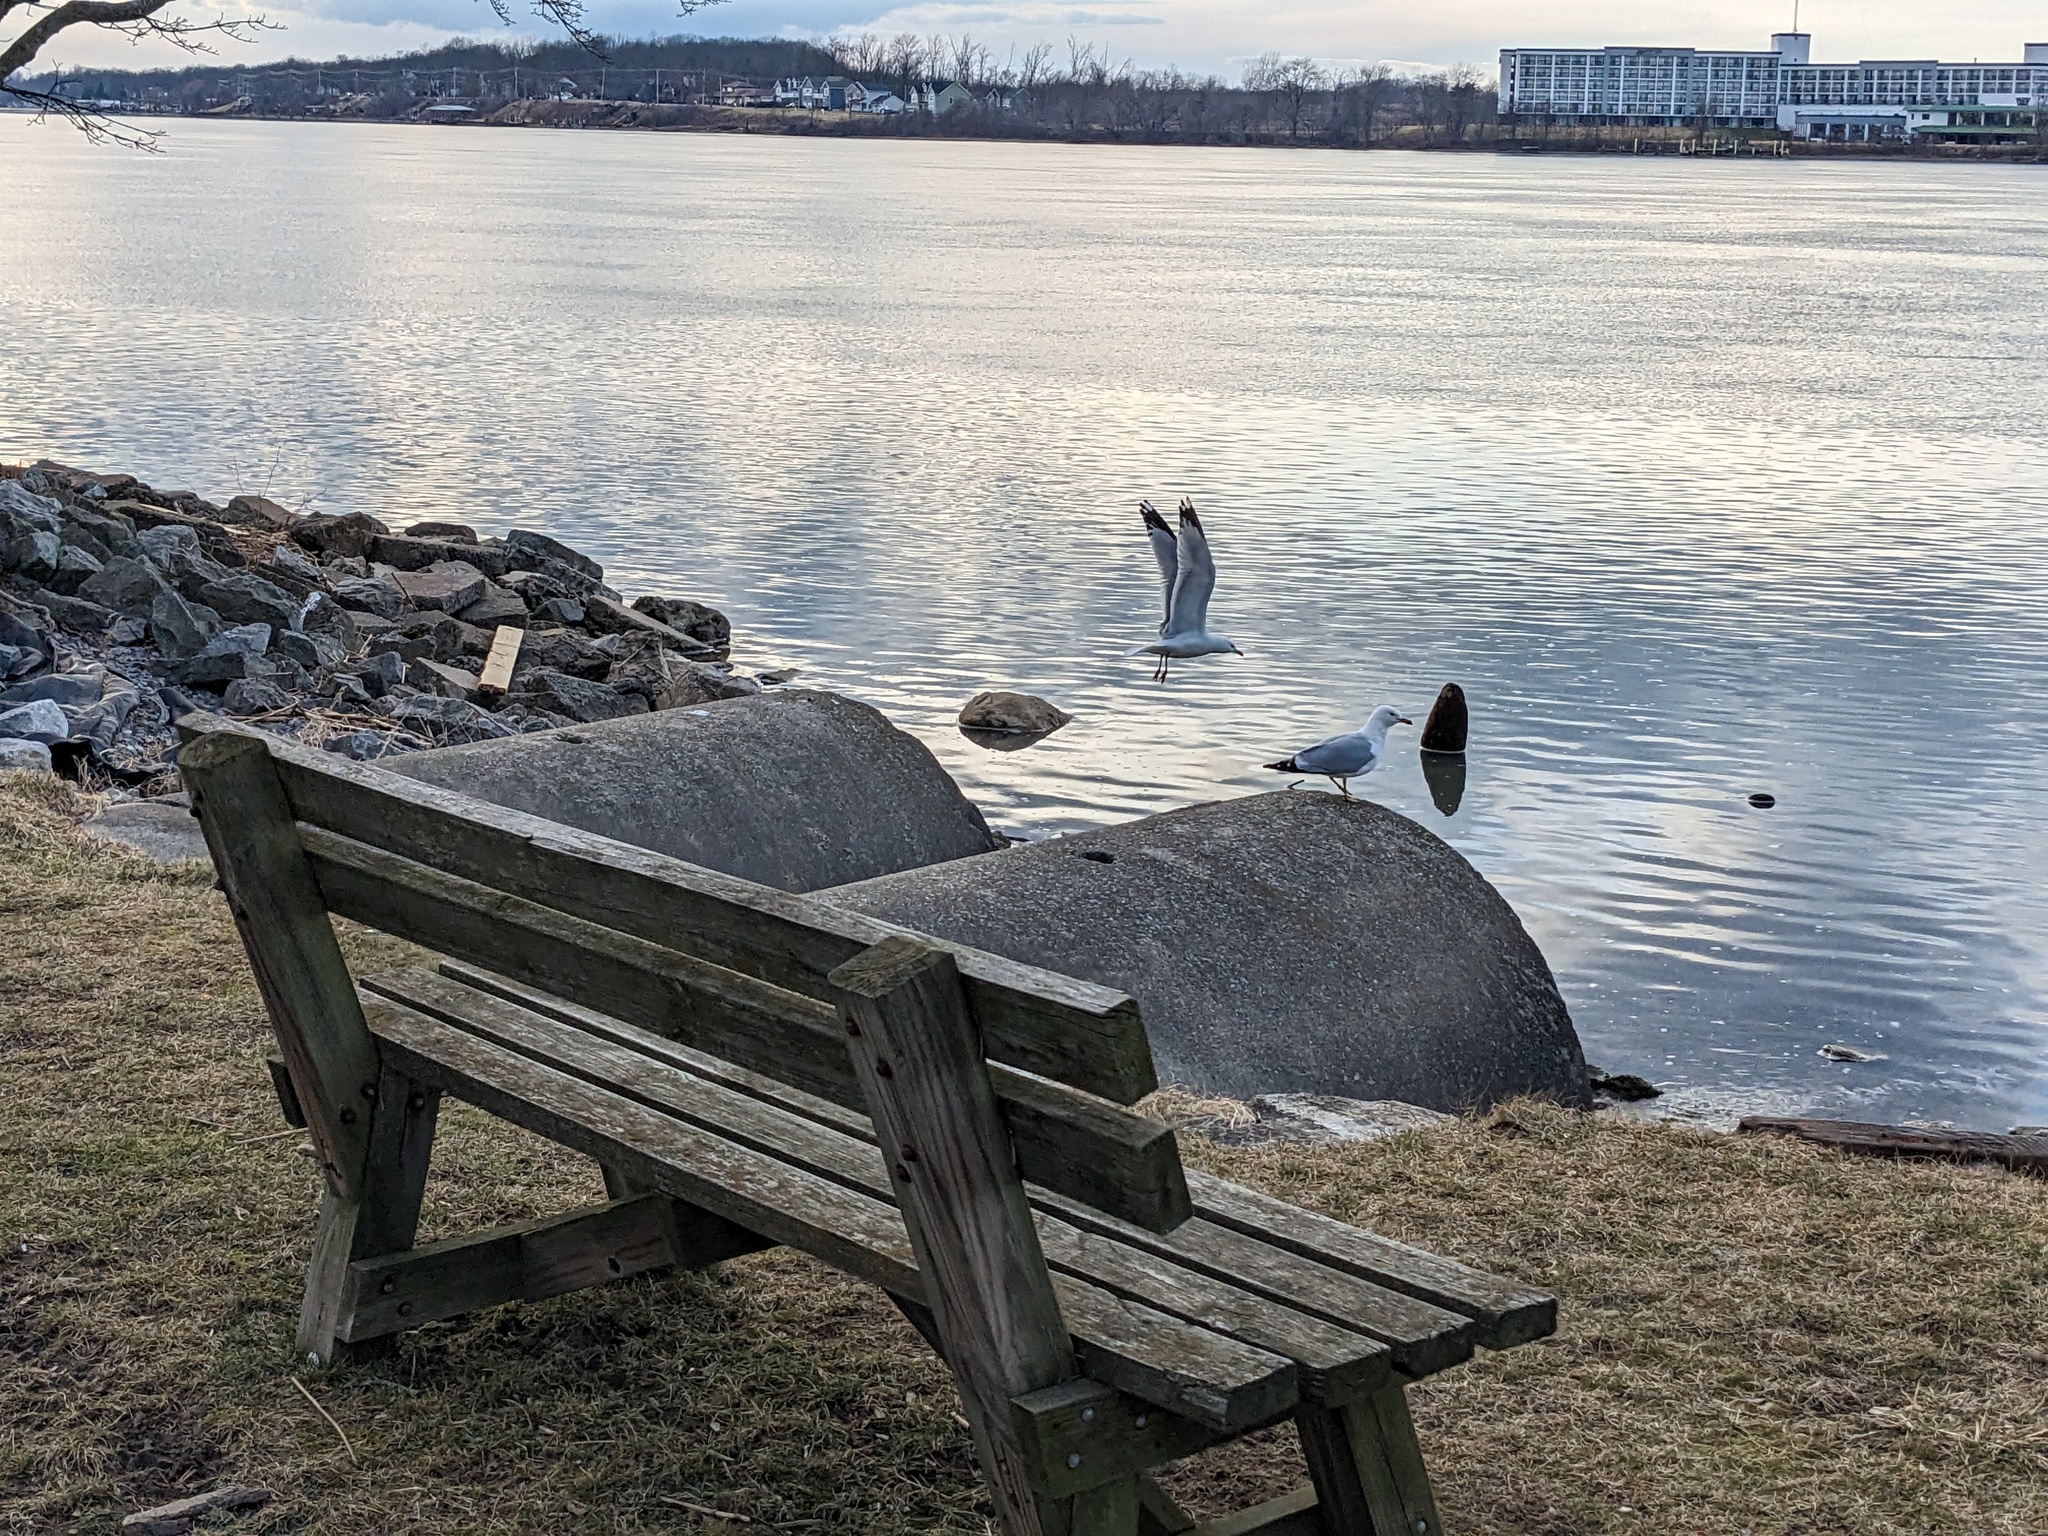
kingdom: Animalia
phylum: Chordata
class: Aves
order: Charadriiformes
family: Laridae
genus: Larus
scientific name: Larus delawarensis
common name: Ring-billed gull
